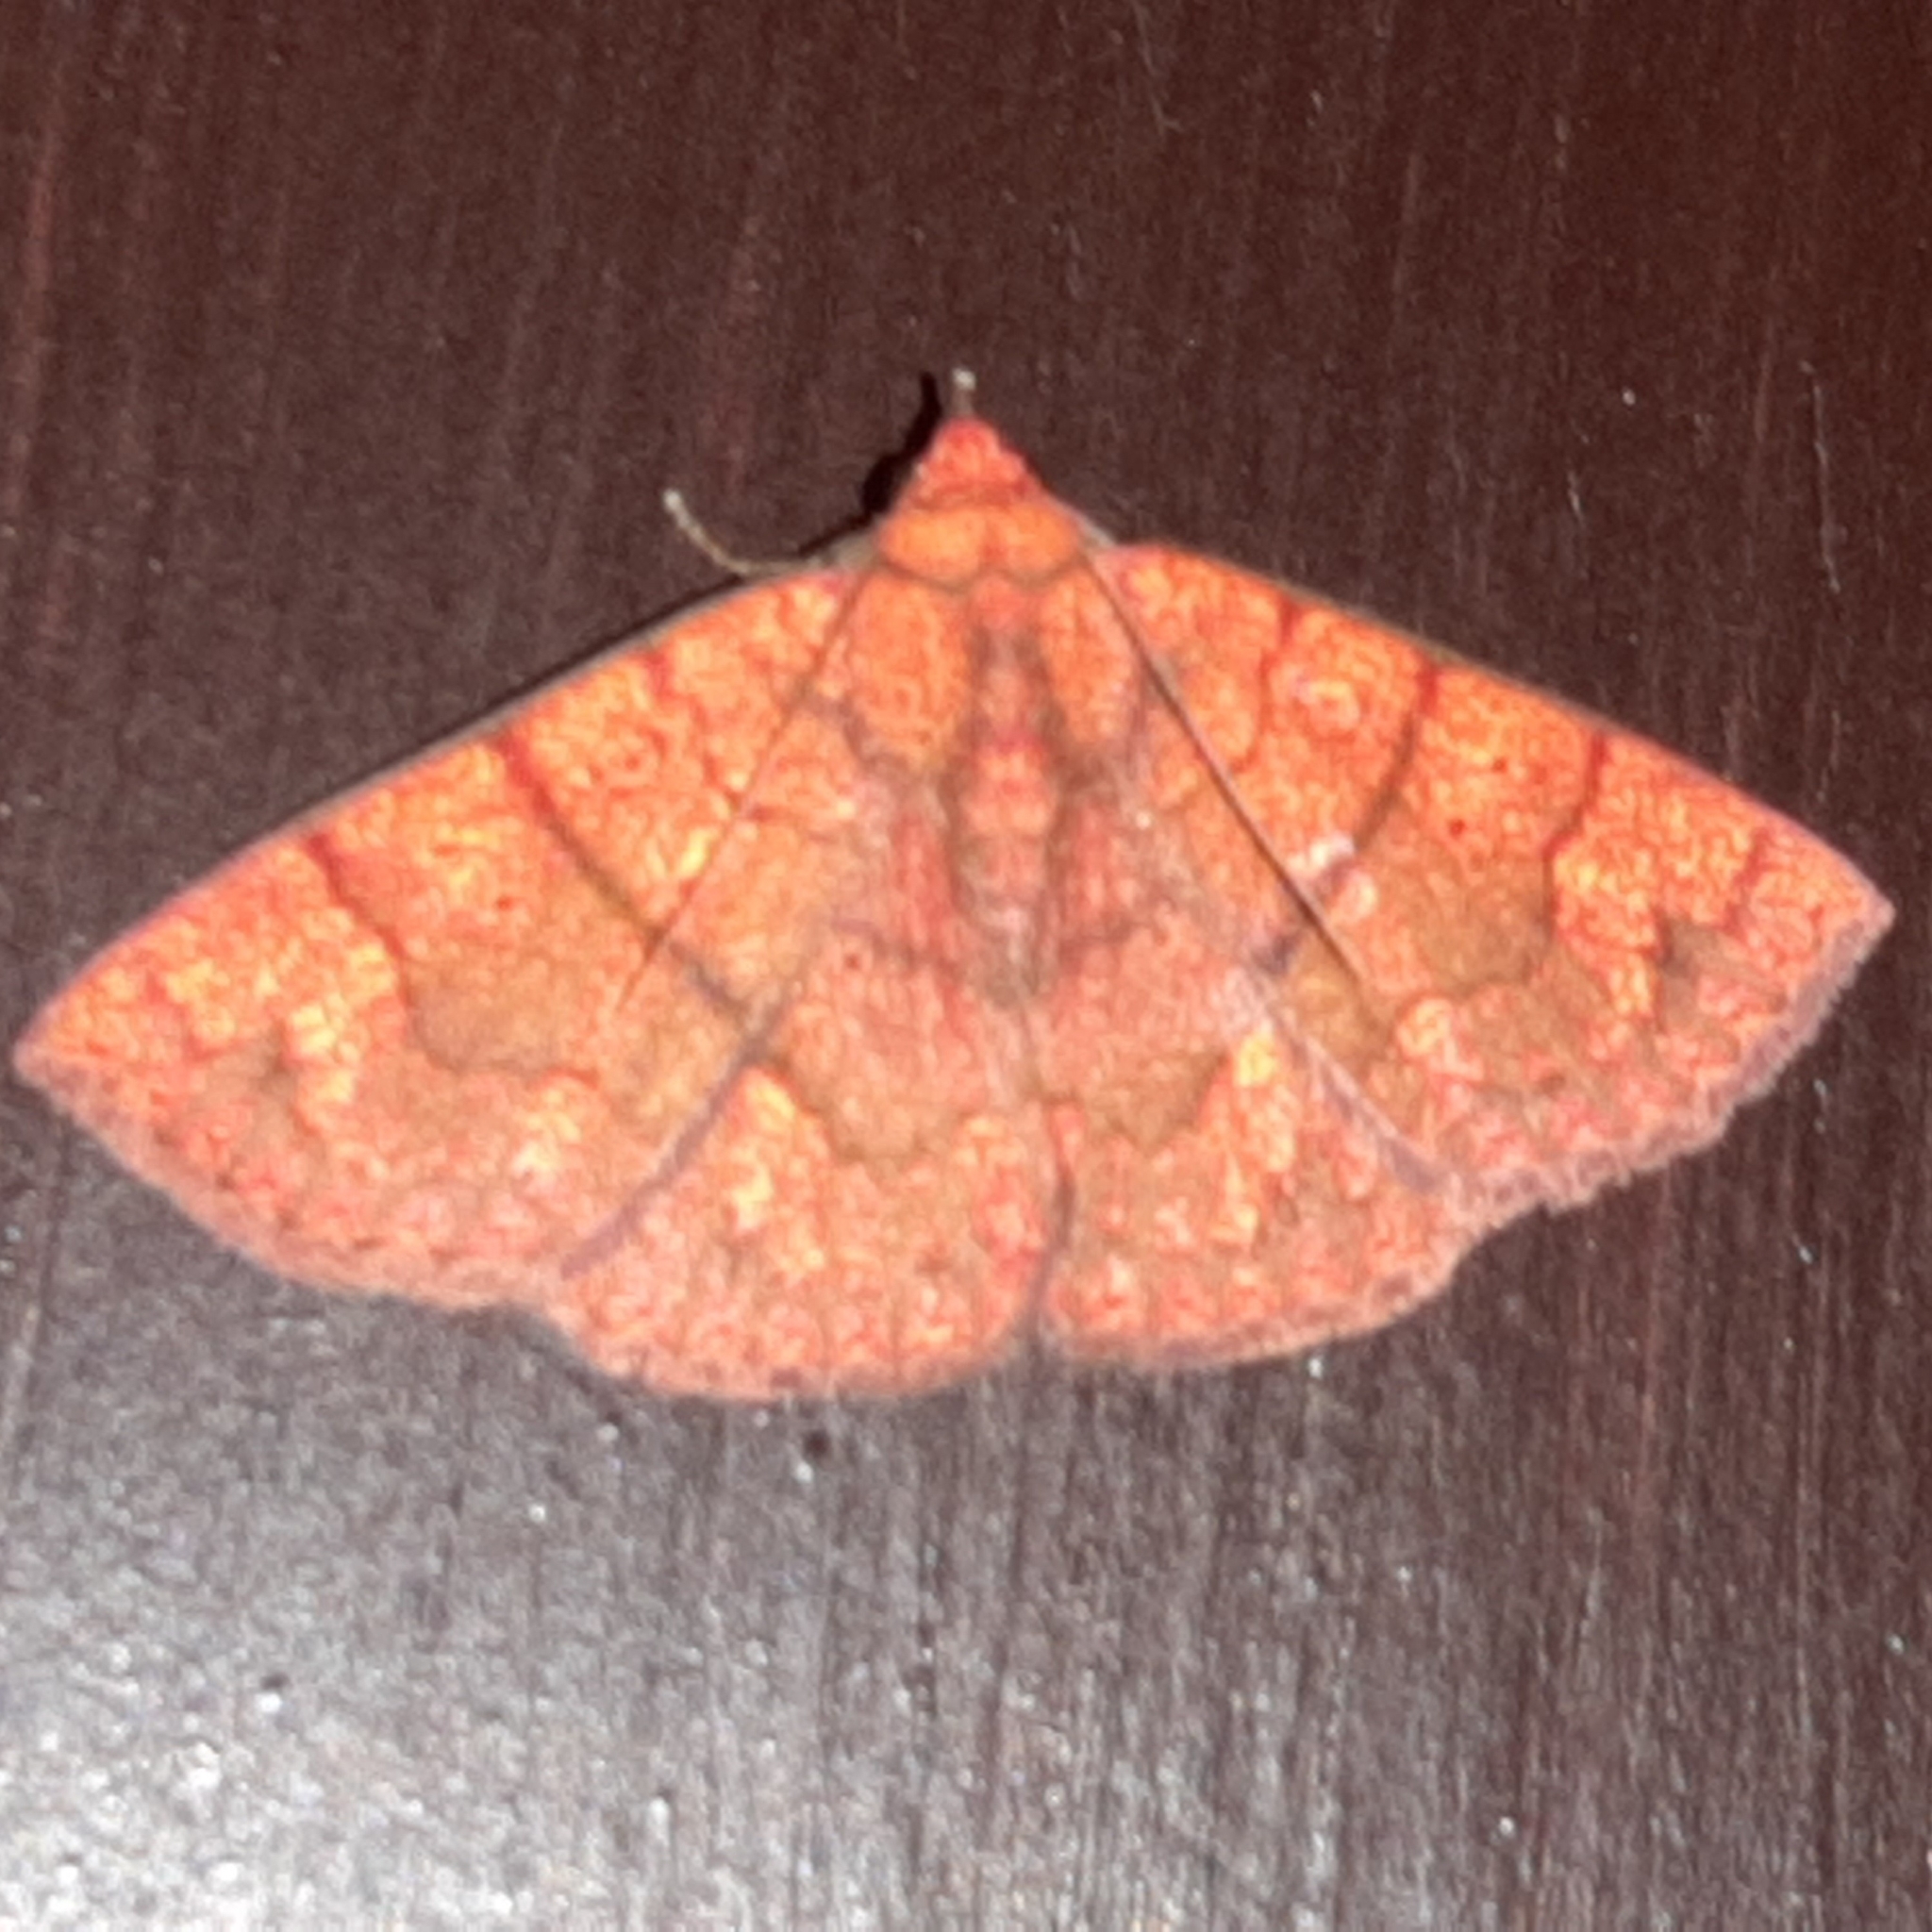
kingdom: Animalia
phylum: Arthropoda
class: Insecta
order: Lepidoptera
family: Erebidae
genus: Antiblemma
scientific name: Antiblemma agnita
